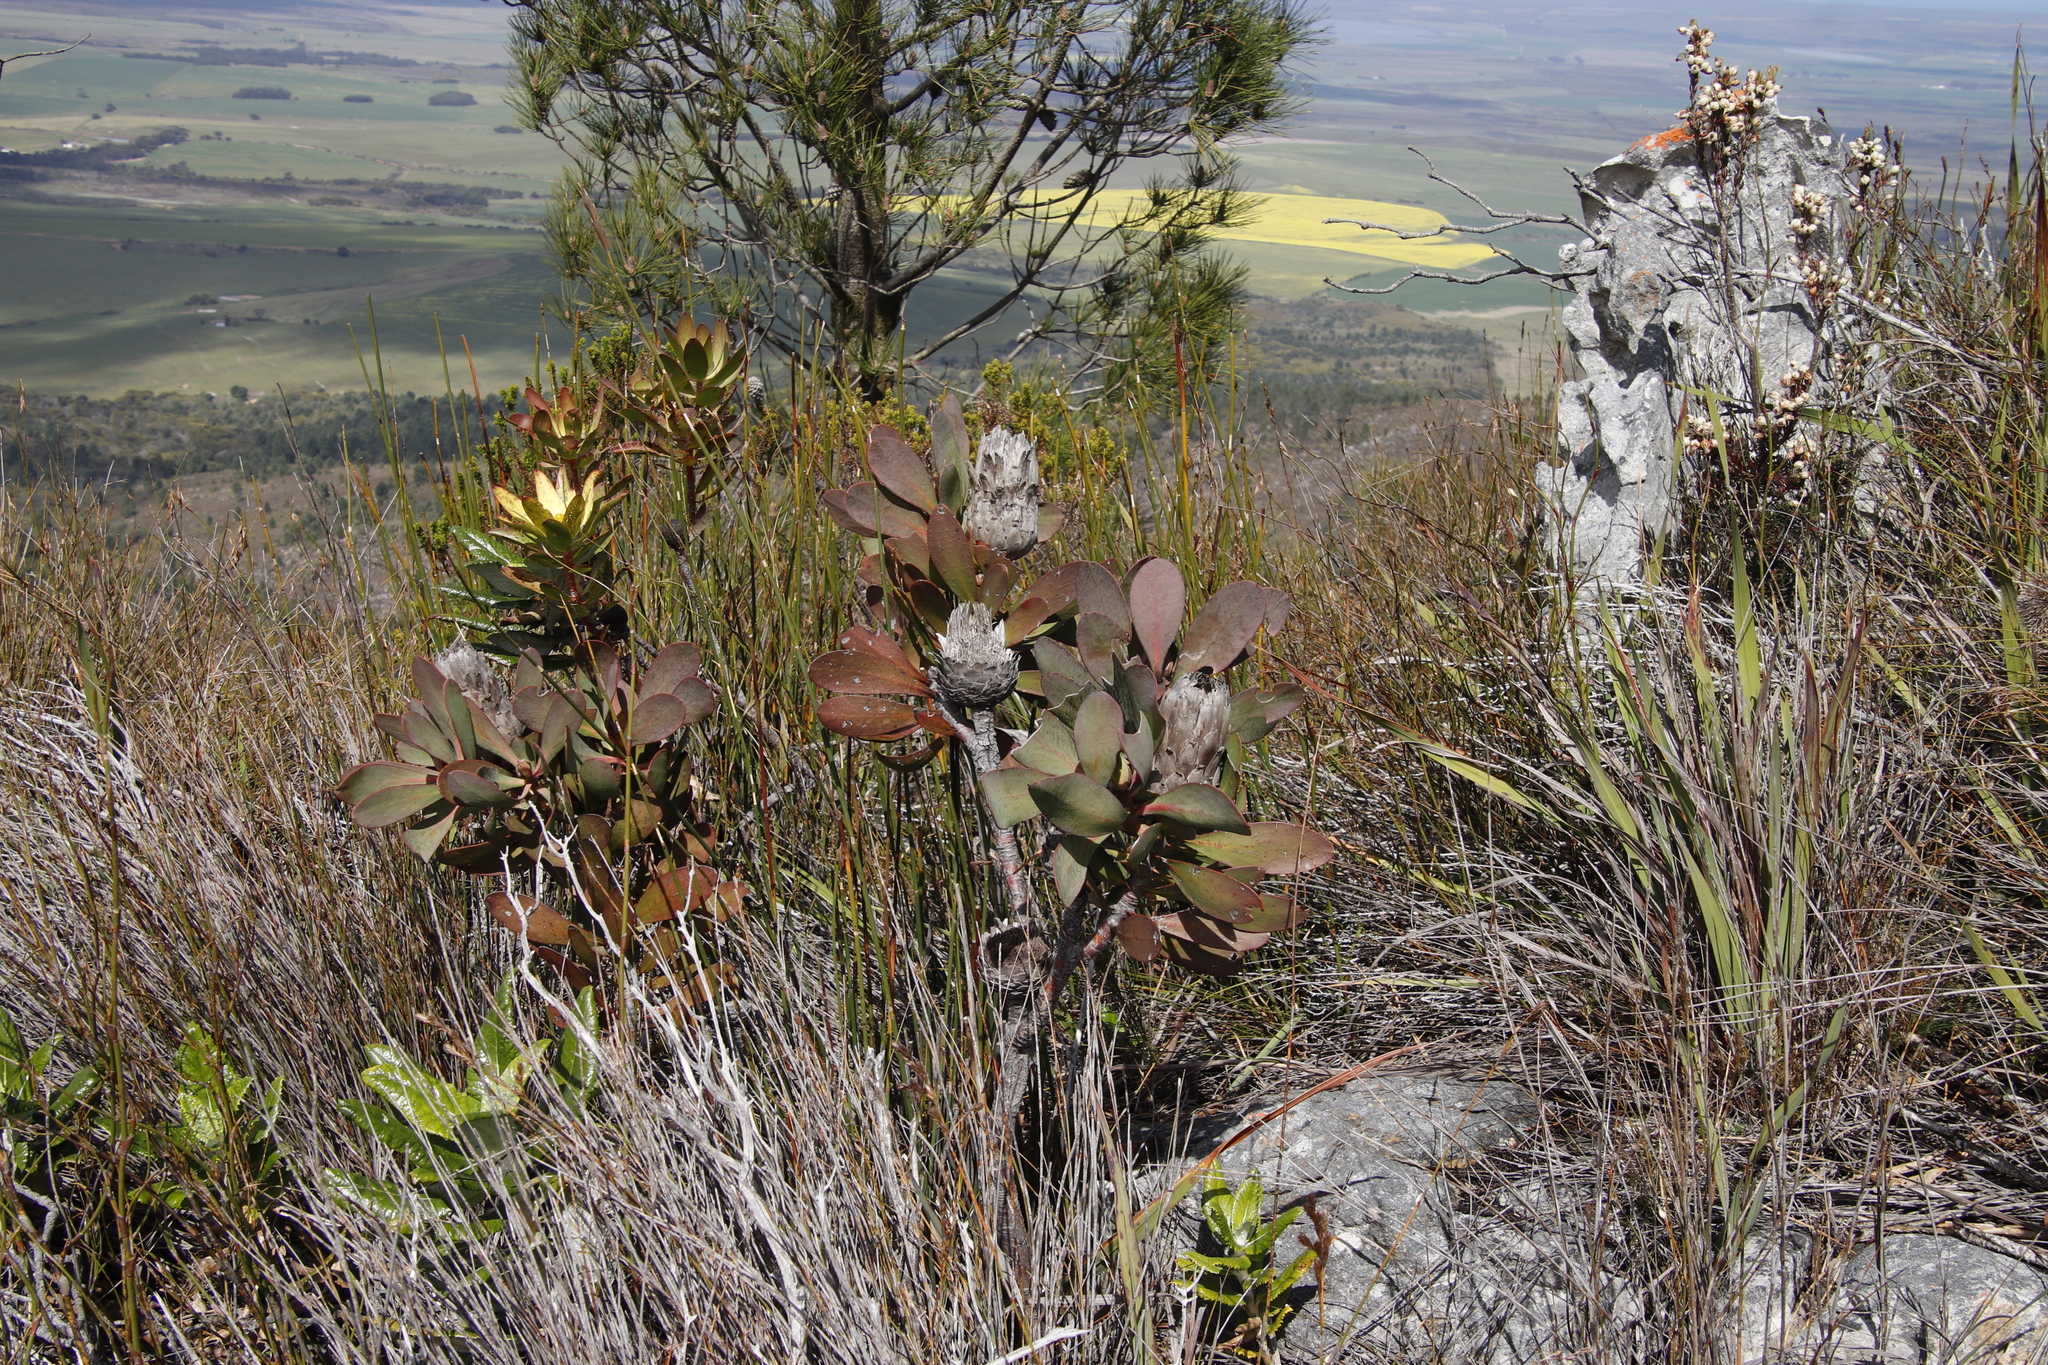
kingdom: Plantae
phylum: Tracheophyta
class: Magnoliopsida
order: Proteales
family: Proteaceae
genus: Protea
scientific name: Protea speciosa
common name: Brown-beard sugarbush
